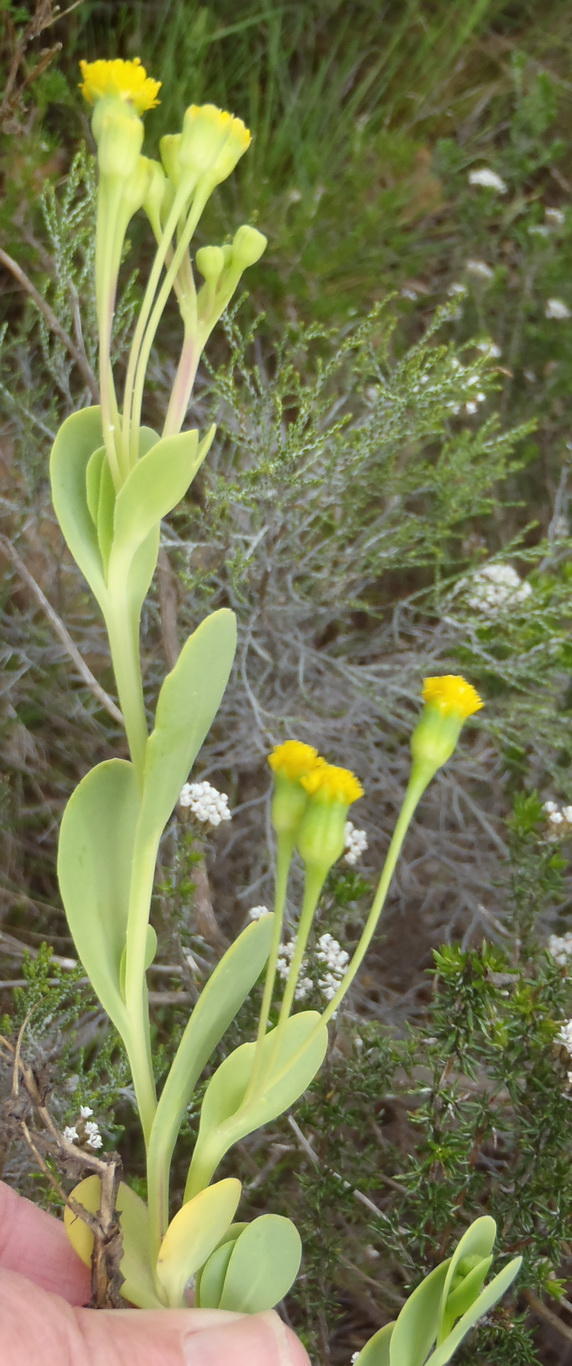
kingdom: Plantae
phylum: Tracheophyta
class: Magnoliopsida
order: Asterales
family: Asteraceae
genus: Hertia
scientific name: Hertia kraussii
